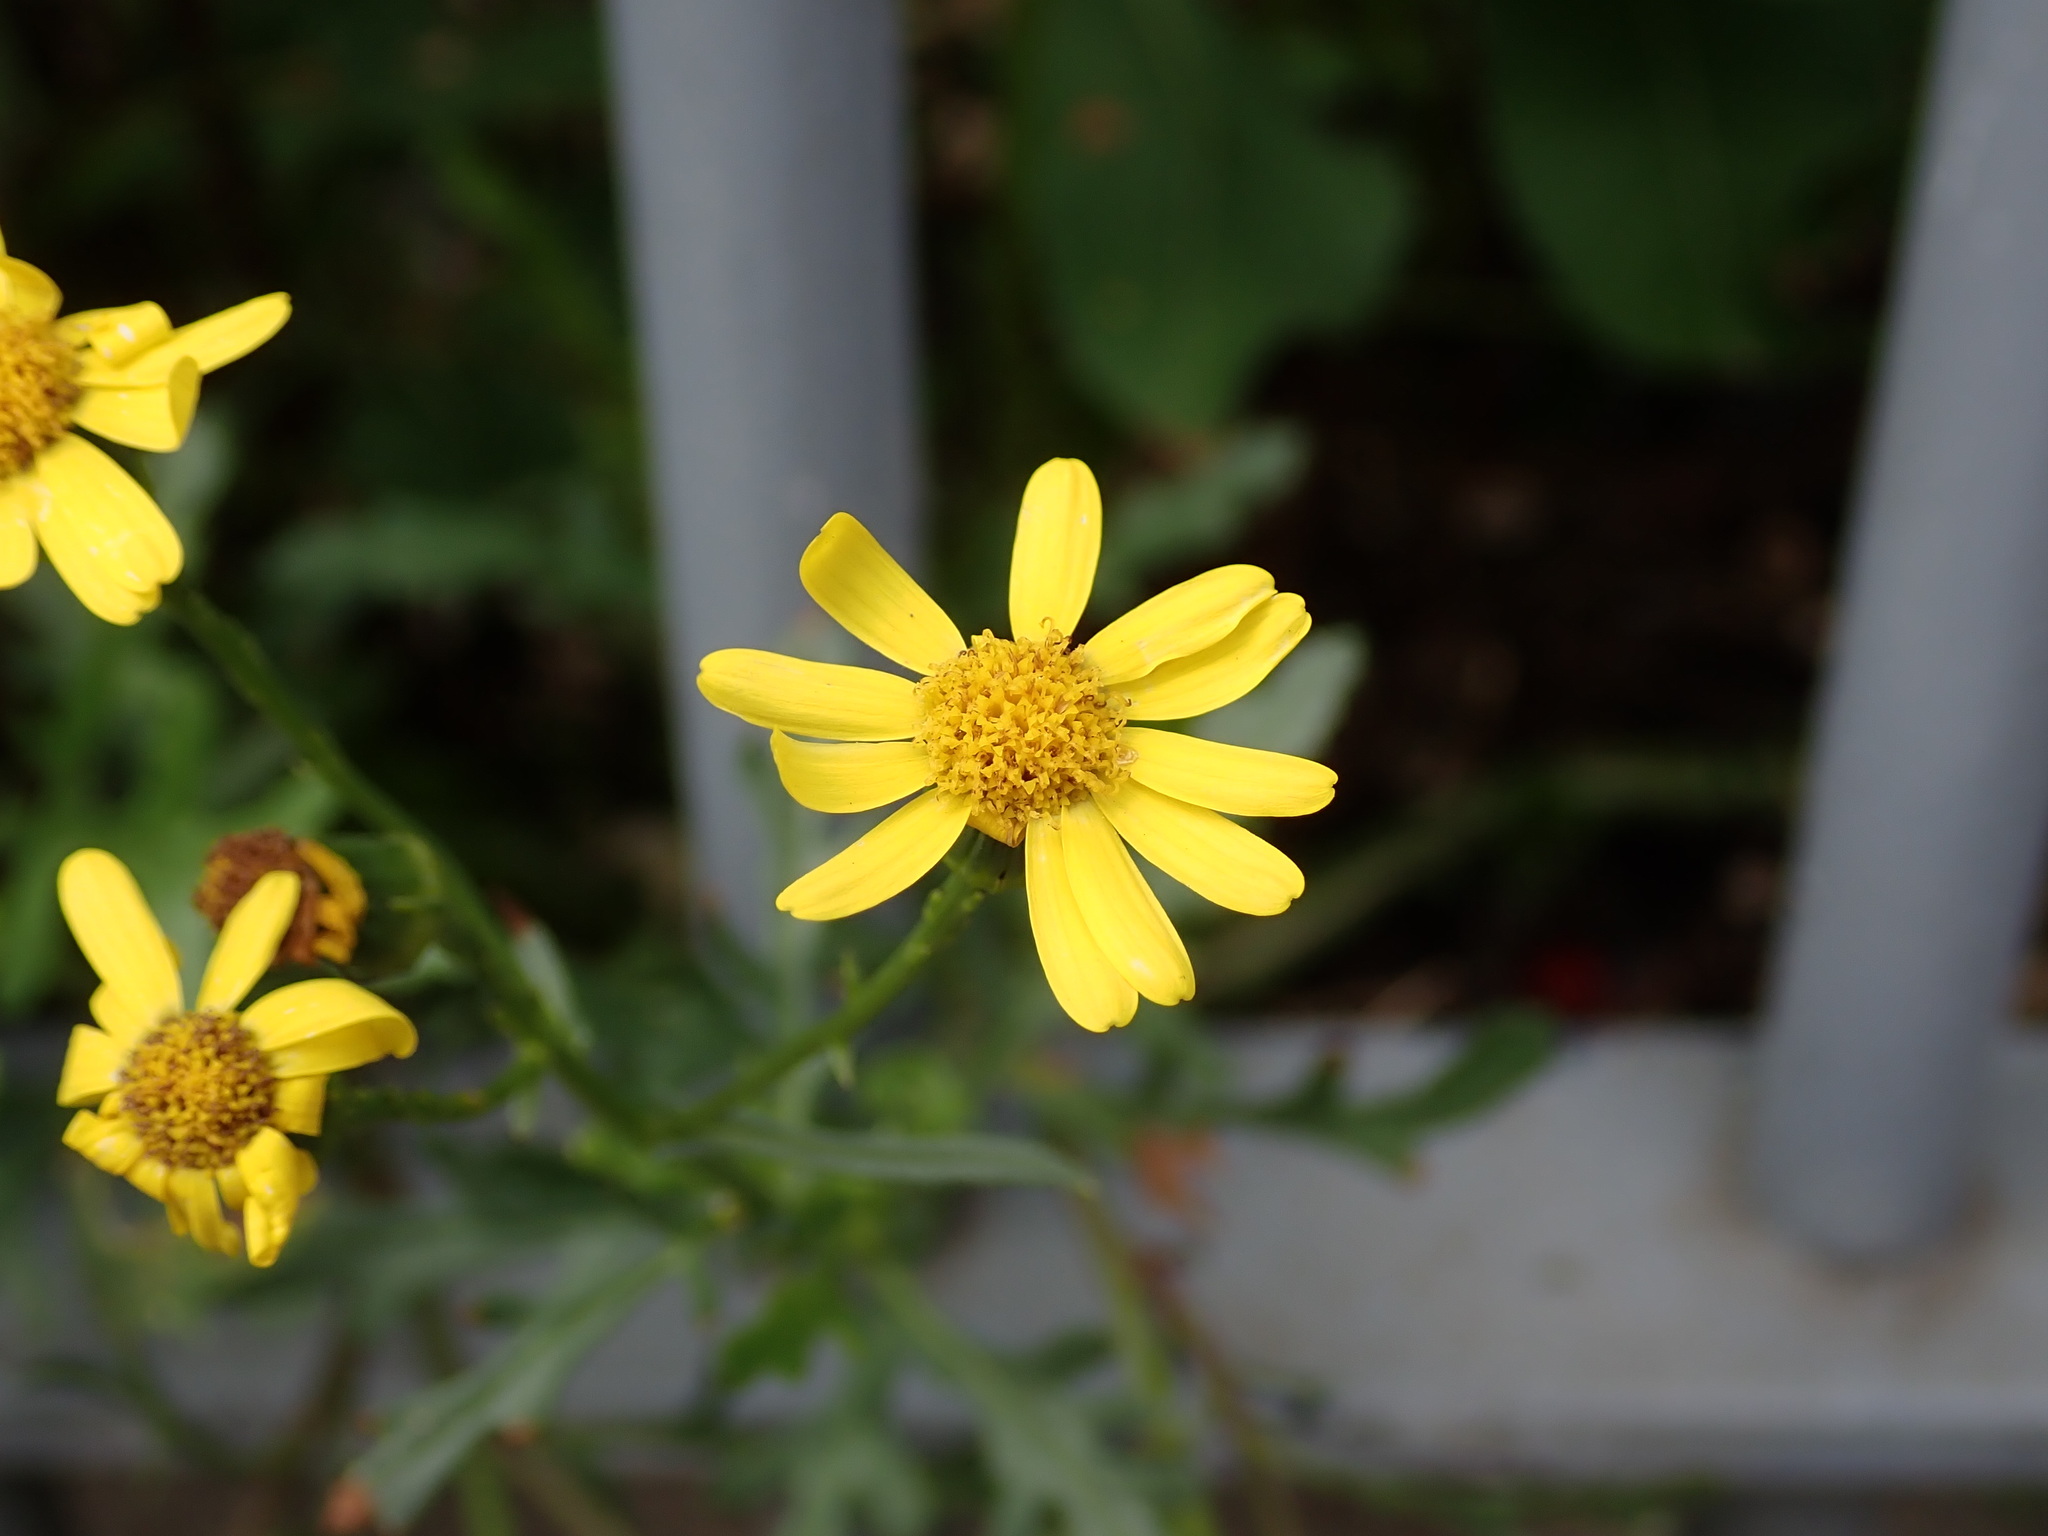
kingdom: Plantae
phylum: Tracheophyta
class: Magnoliopsida
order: Asterales
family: Asteraceae
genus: Senecio
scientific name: Senecio squalidus
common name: Oxford ragwort
